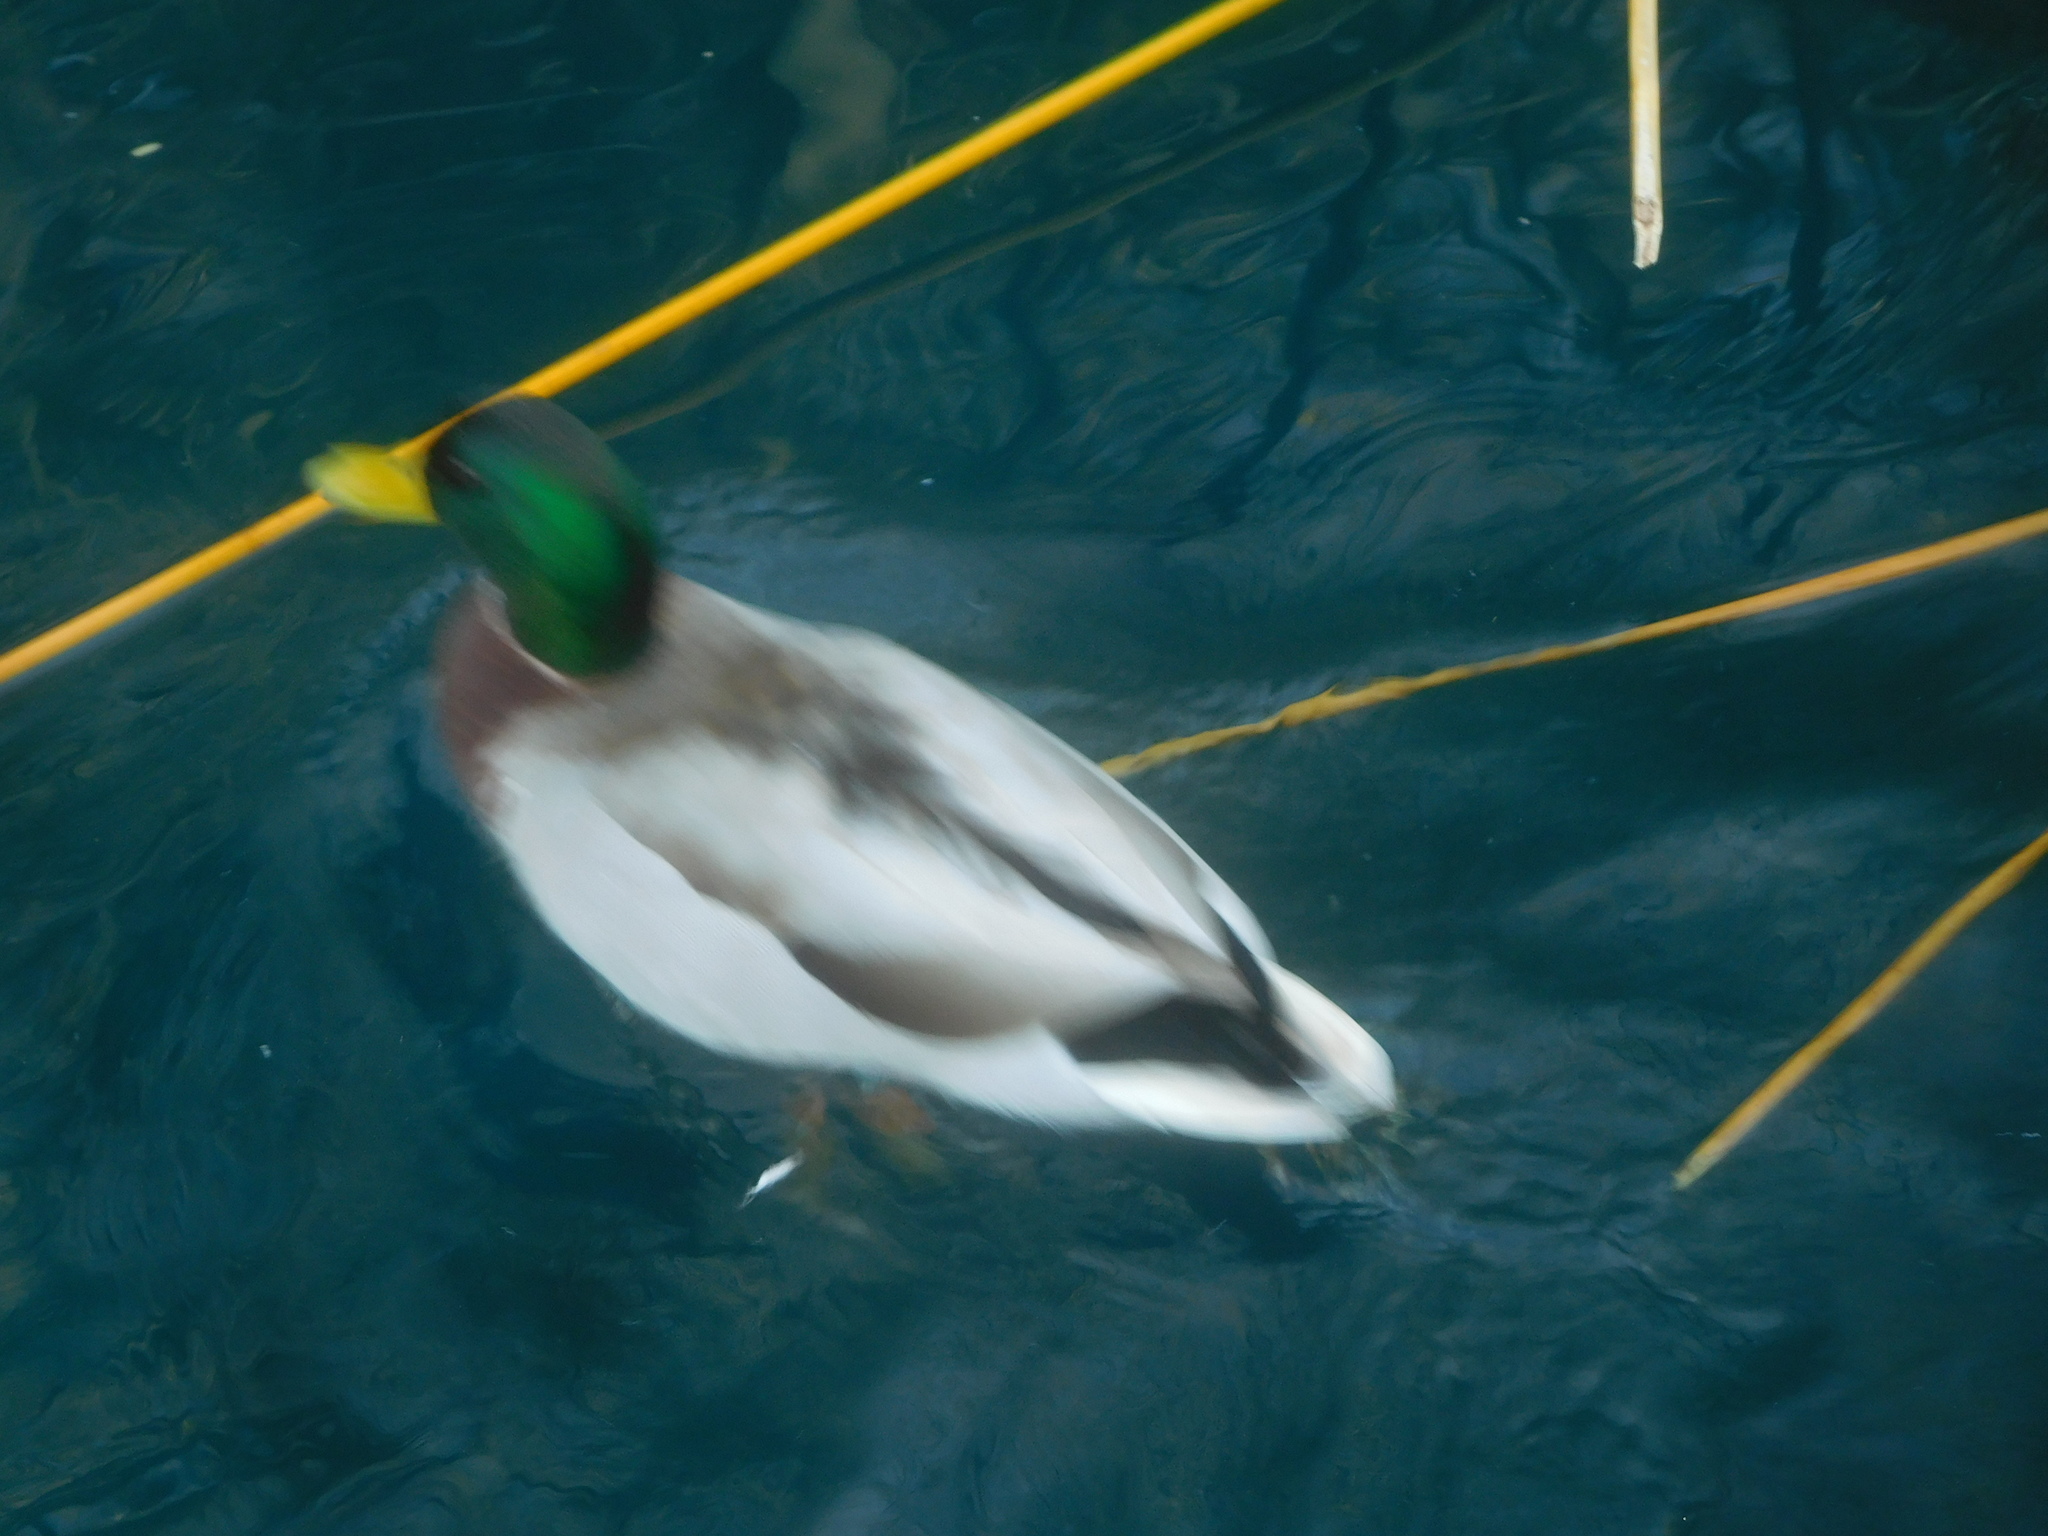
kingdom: Animalia
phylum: Chordata
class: Aves
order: Anseriformes
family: Anatidae
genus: Anas
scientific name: Anas platyrhynchos
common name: Mallard
